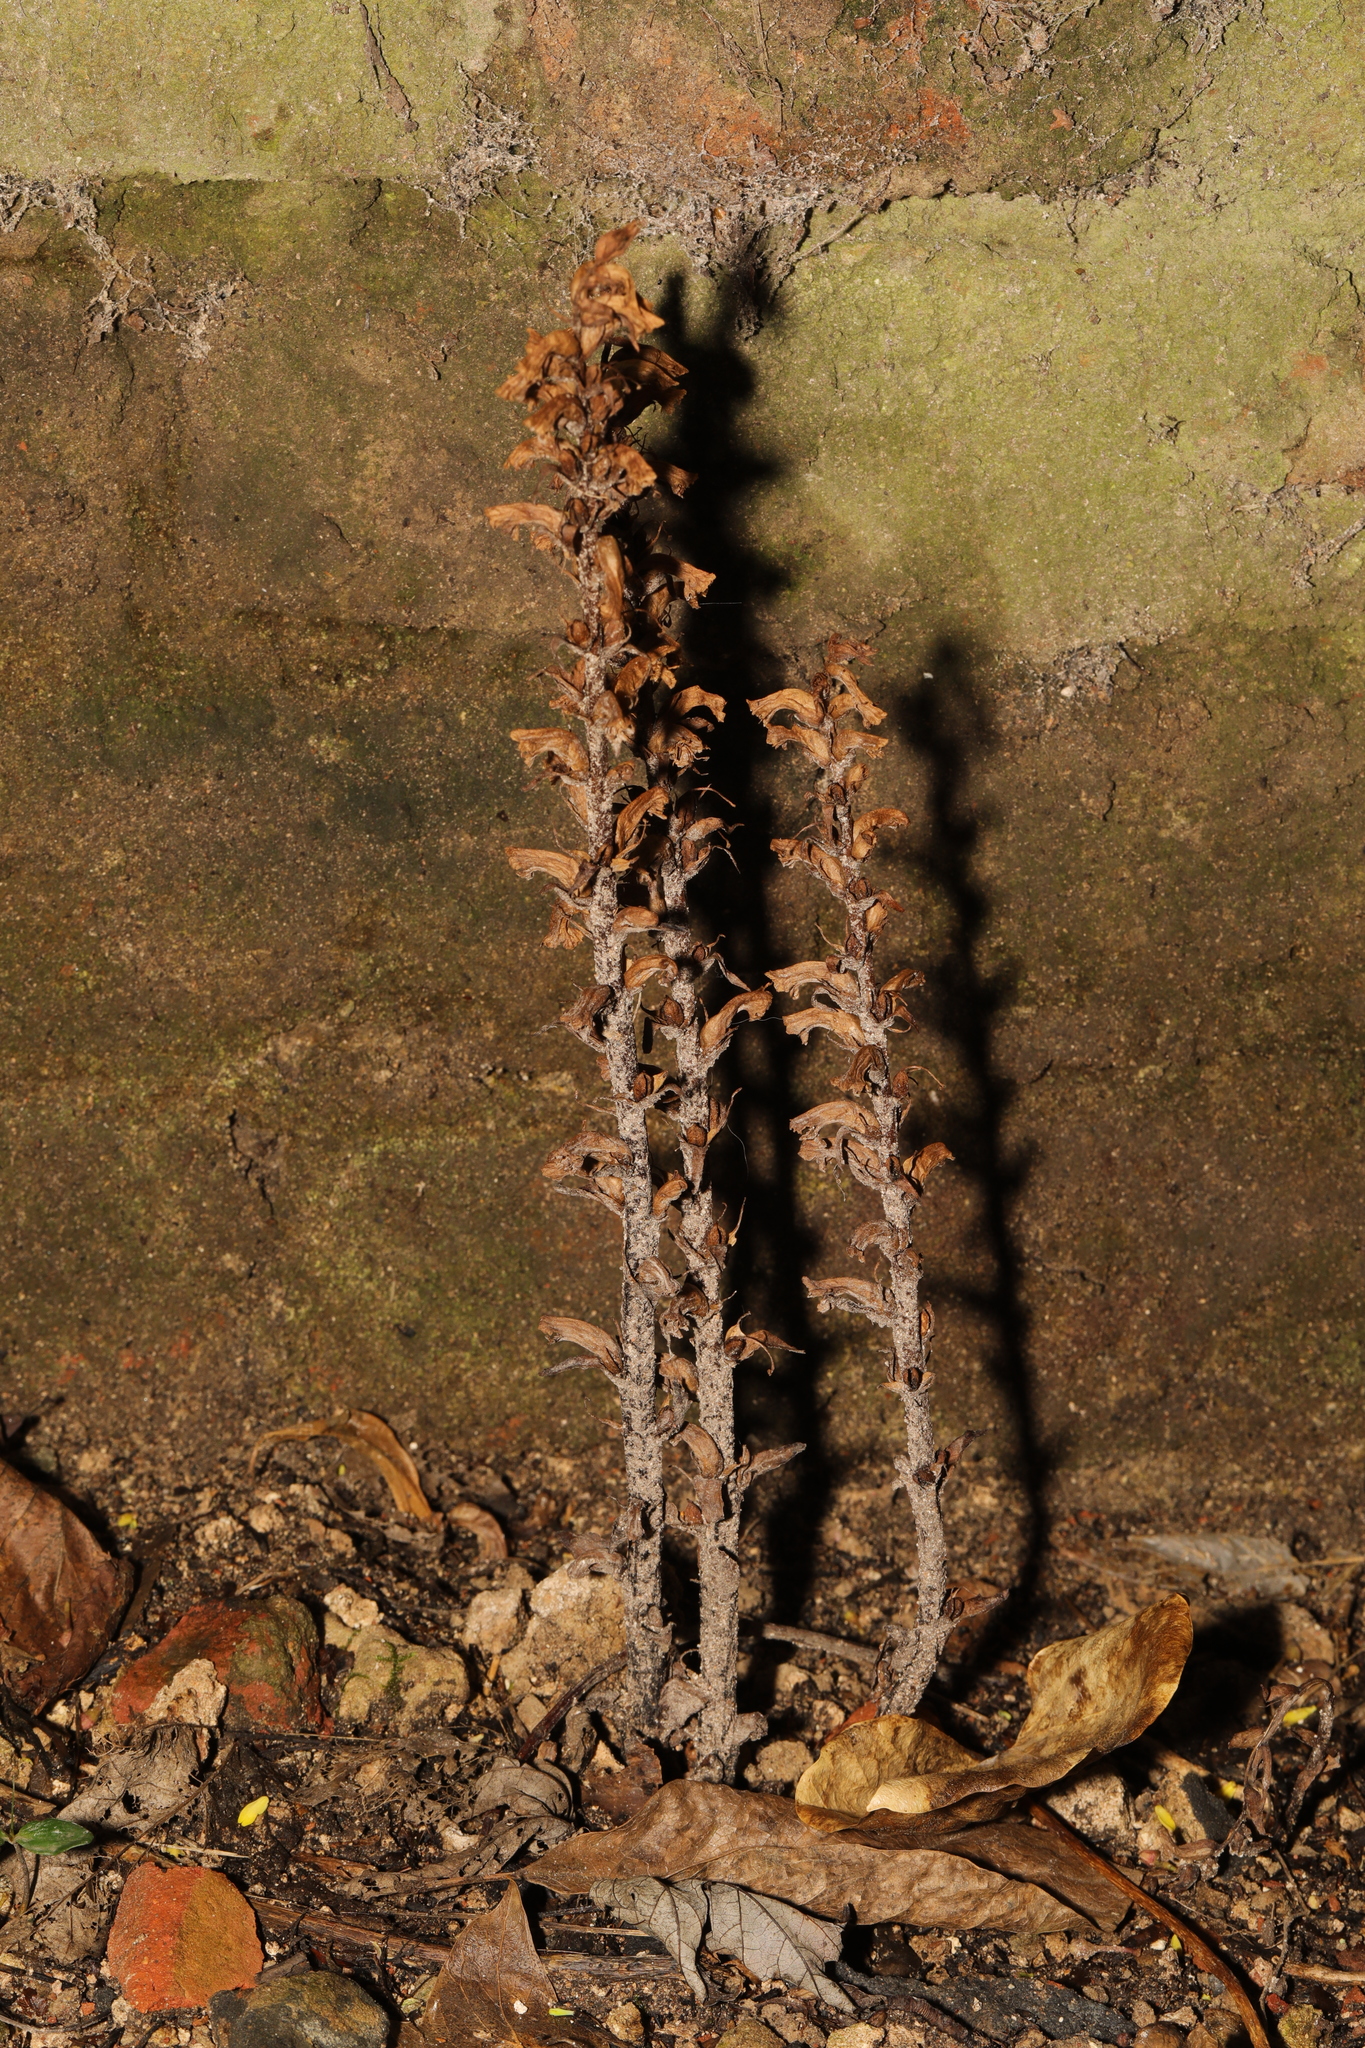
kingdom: Plantae
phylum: Tracheophyta
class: Magnoliopsida
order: Lamiales
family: Orobanchaceae
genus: Orobanche
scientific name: Orobanche hederae
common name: Ivy broomrape
